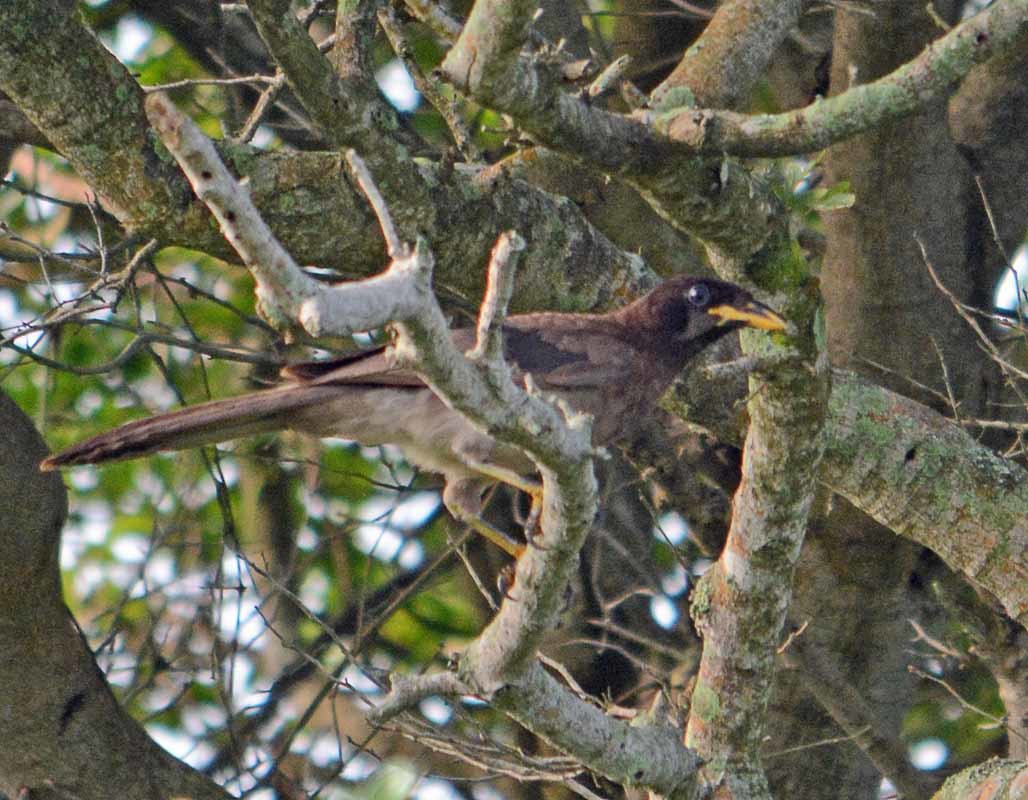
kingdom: Animalia
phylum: Chordata
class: Aves
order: Passeriformes
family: Corvidae
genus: Psilorhinus
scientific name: Psilorhinus morio
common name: Brown jay
